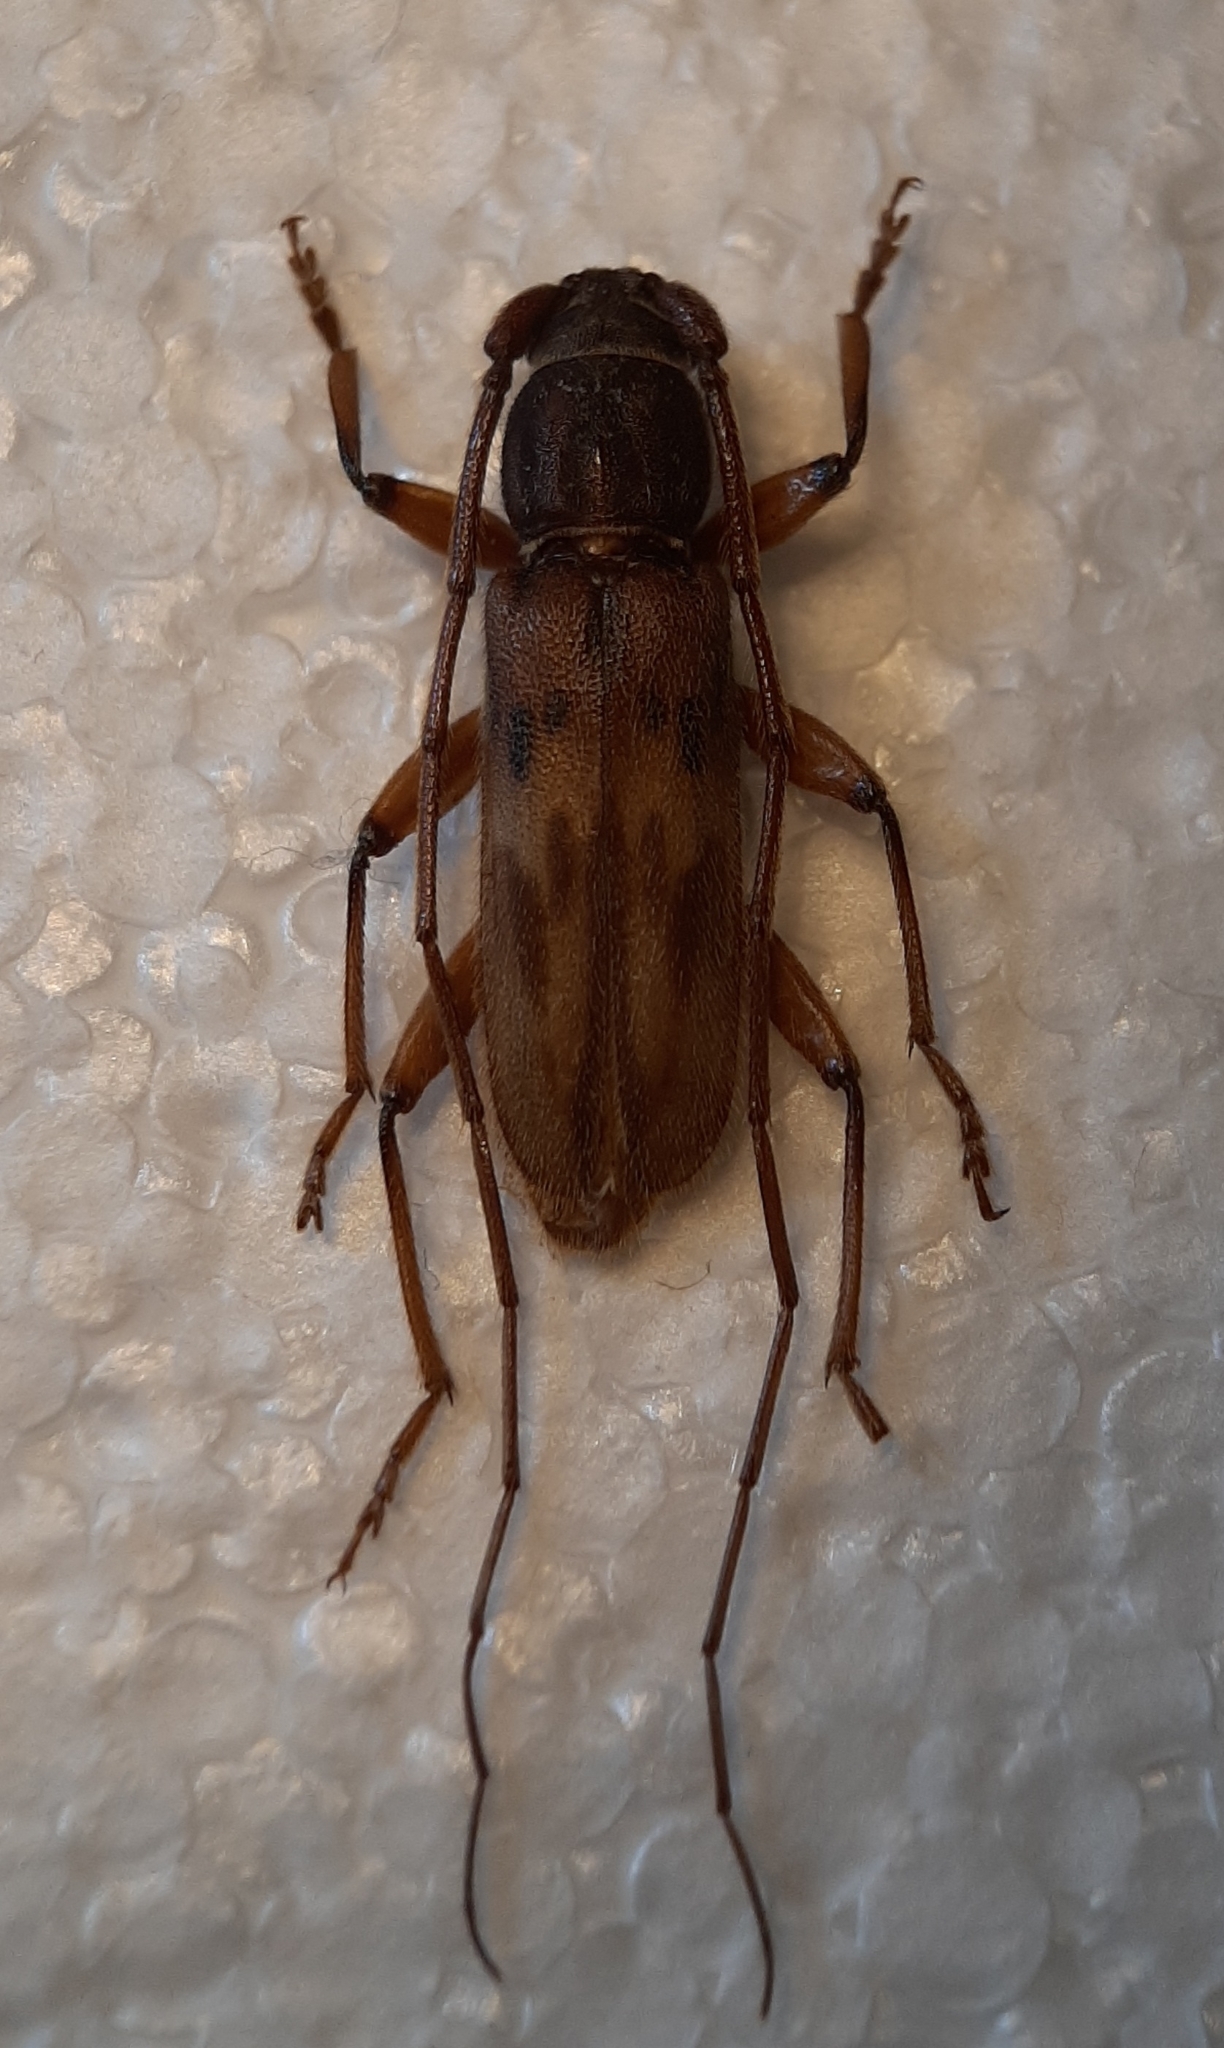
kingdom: Animalia
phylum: Arthropoda
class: Insecta
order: Coleoptera
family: Cerambycidae
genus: Achryson
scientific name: Achryson lutarium
